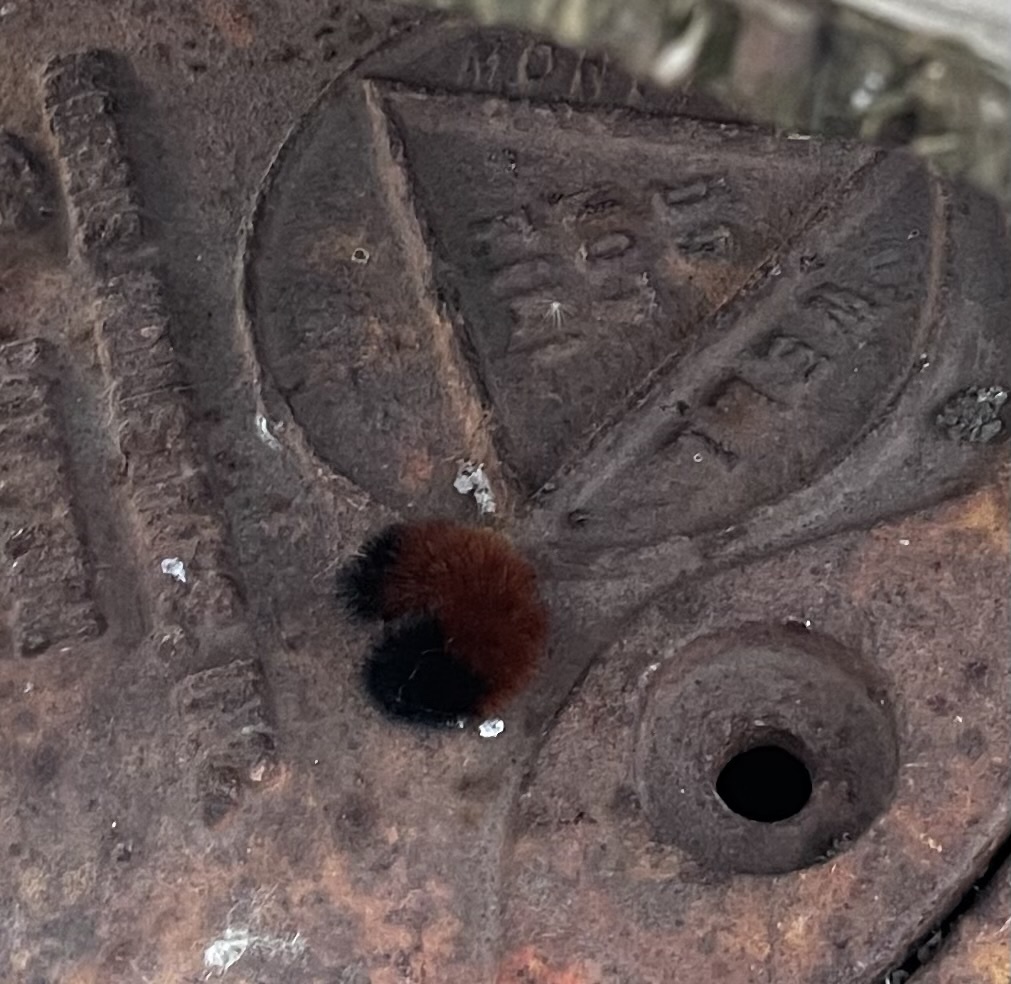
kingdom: Animalia
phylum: Arthropoda
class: Insecta
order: Lepidoptera
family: Erebidae
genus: Pyrrharctia
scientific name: Pyrrharctia isabella
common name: Isabella tiger moth
